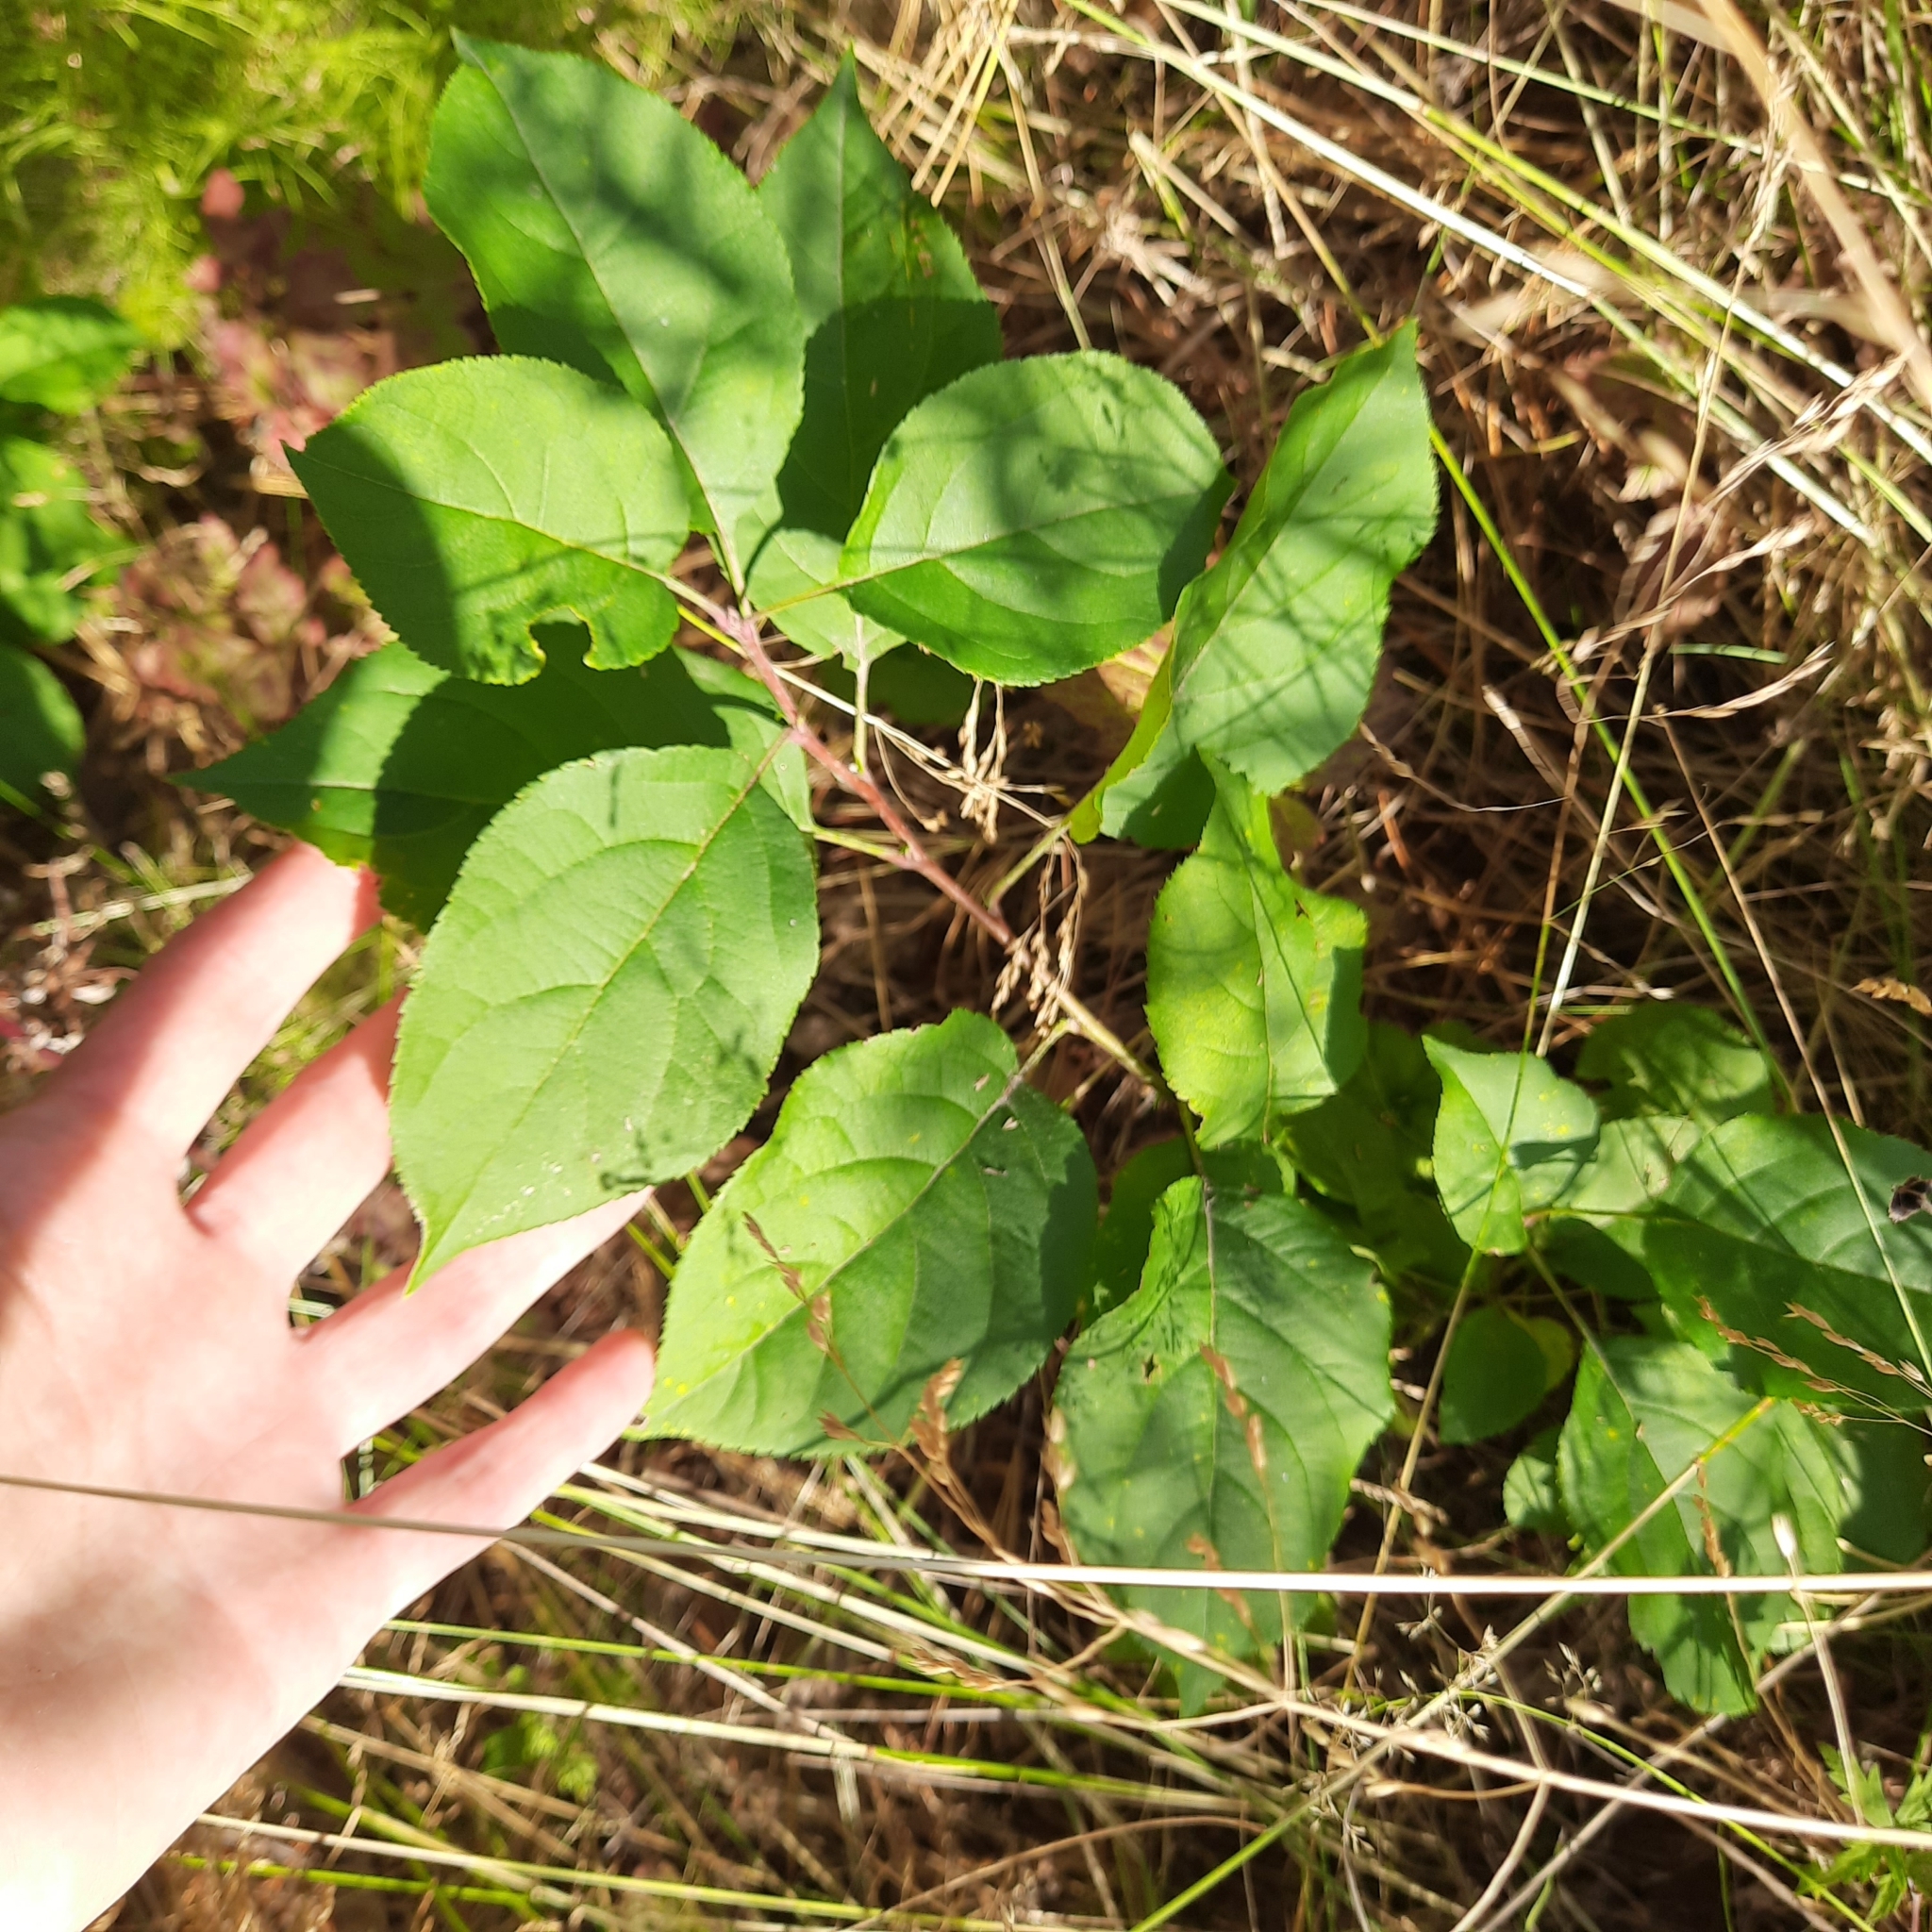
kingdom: Plantae
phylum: Tracheophyta
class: Magnoliopsida
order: Rosales
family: Rosaceae
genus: Malus
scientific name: Malus baccata
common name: Siberian crab
